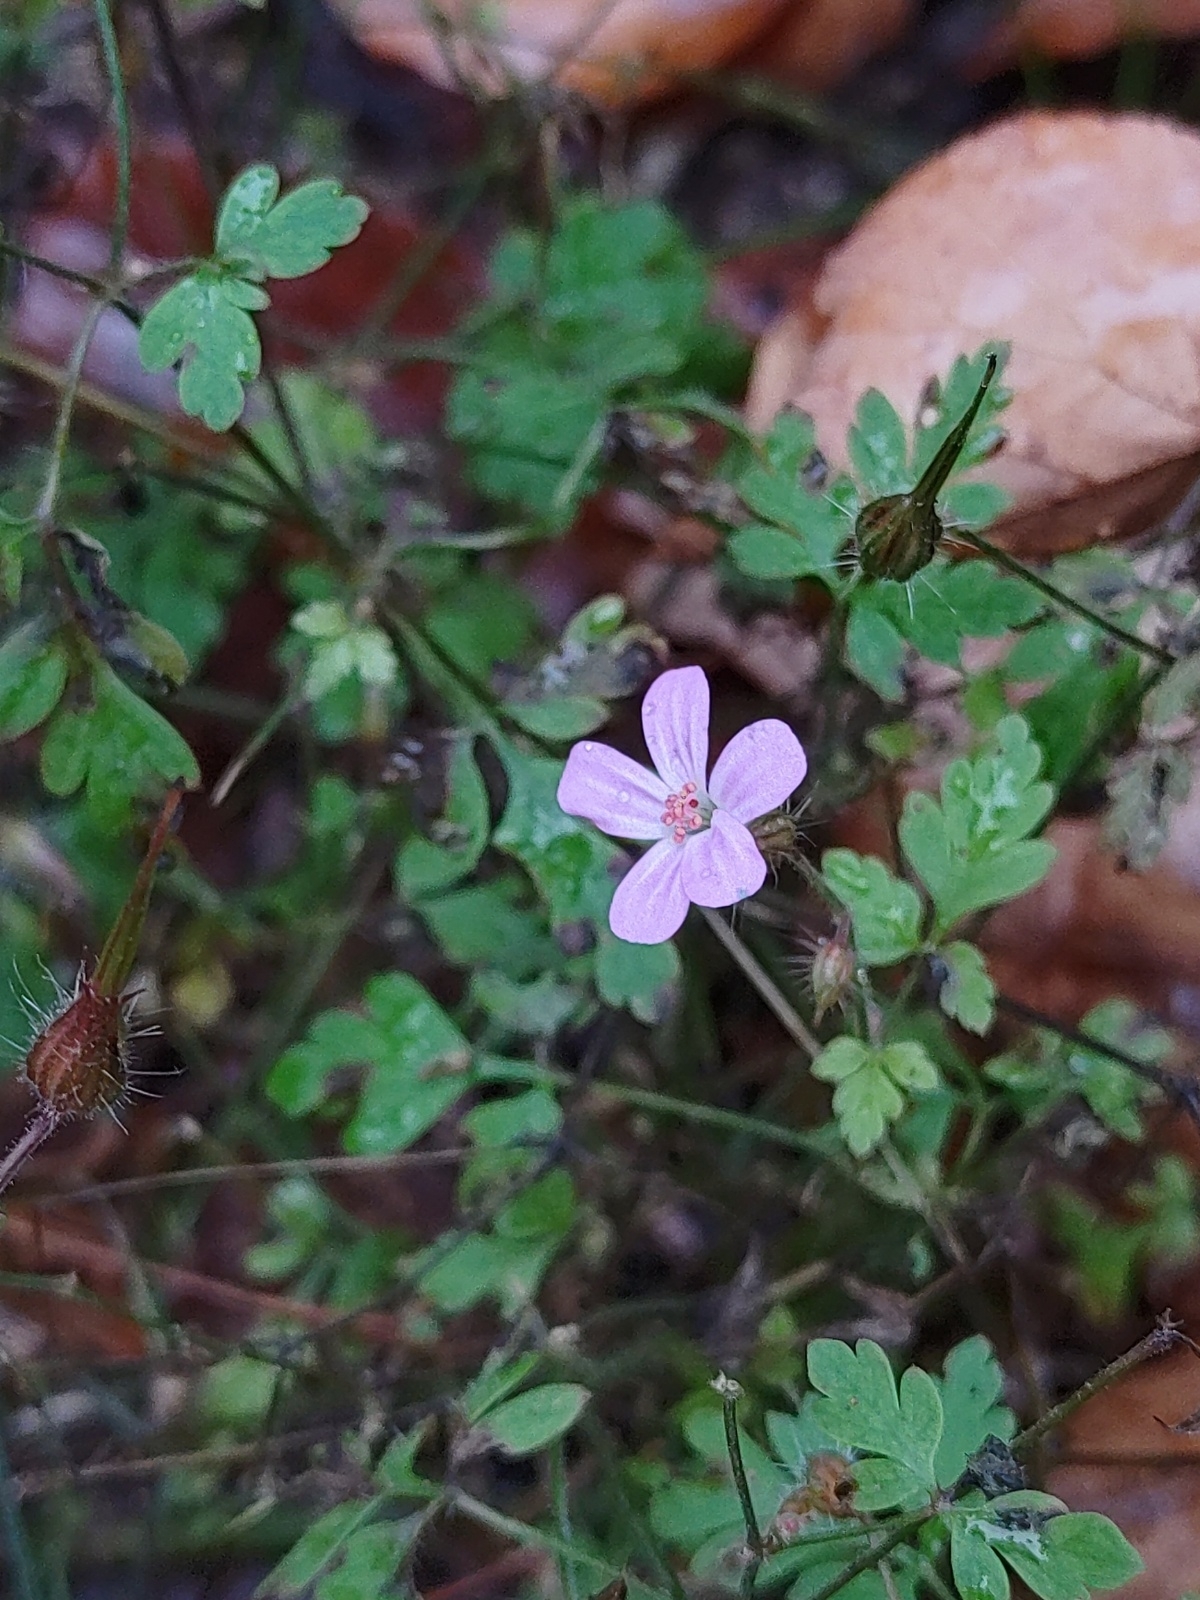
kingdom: Plantae
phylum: Tracheophyta
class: Magnoliopsida
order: Geraniales
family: Geraniaceae
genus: Geranium
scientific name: Geranium robertianum
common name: Herb-robert
